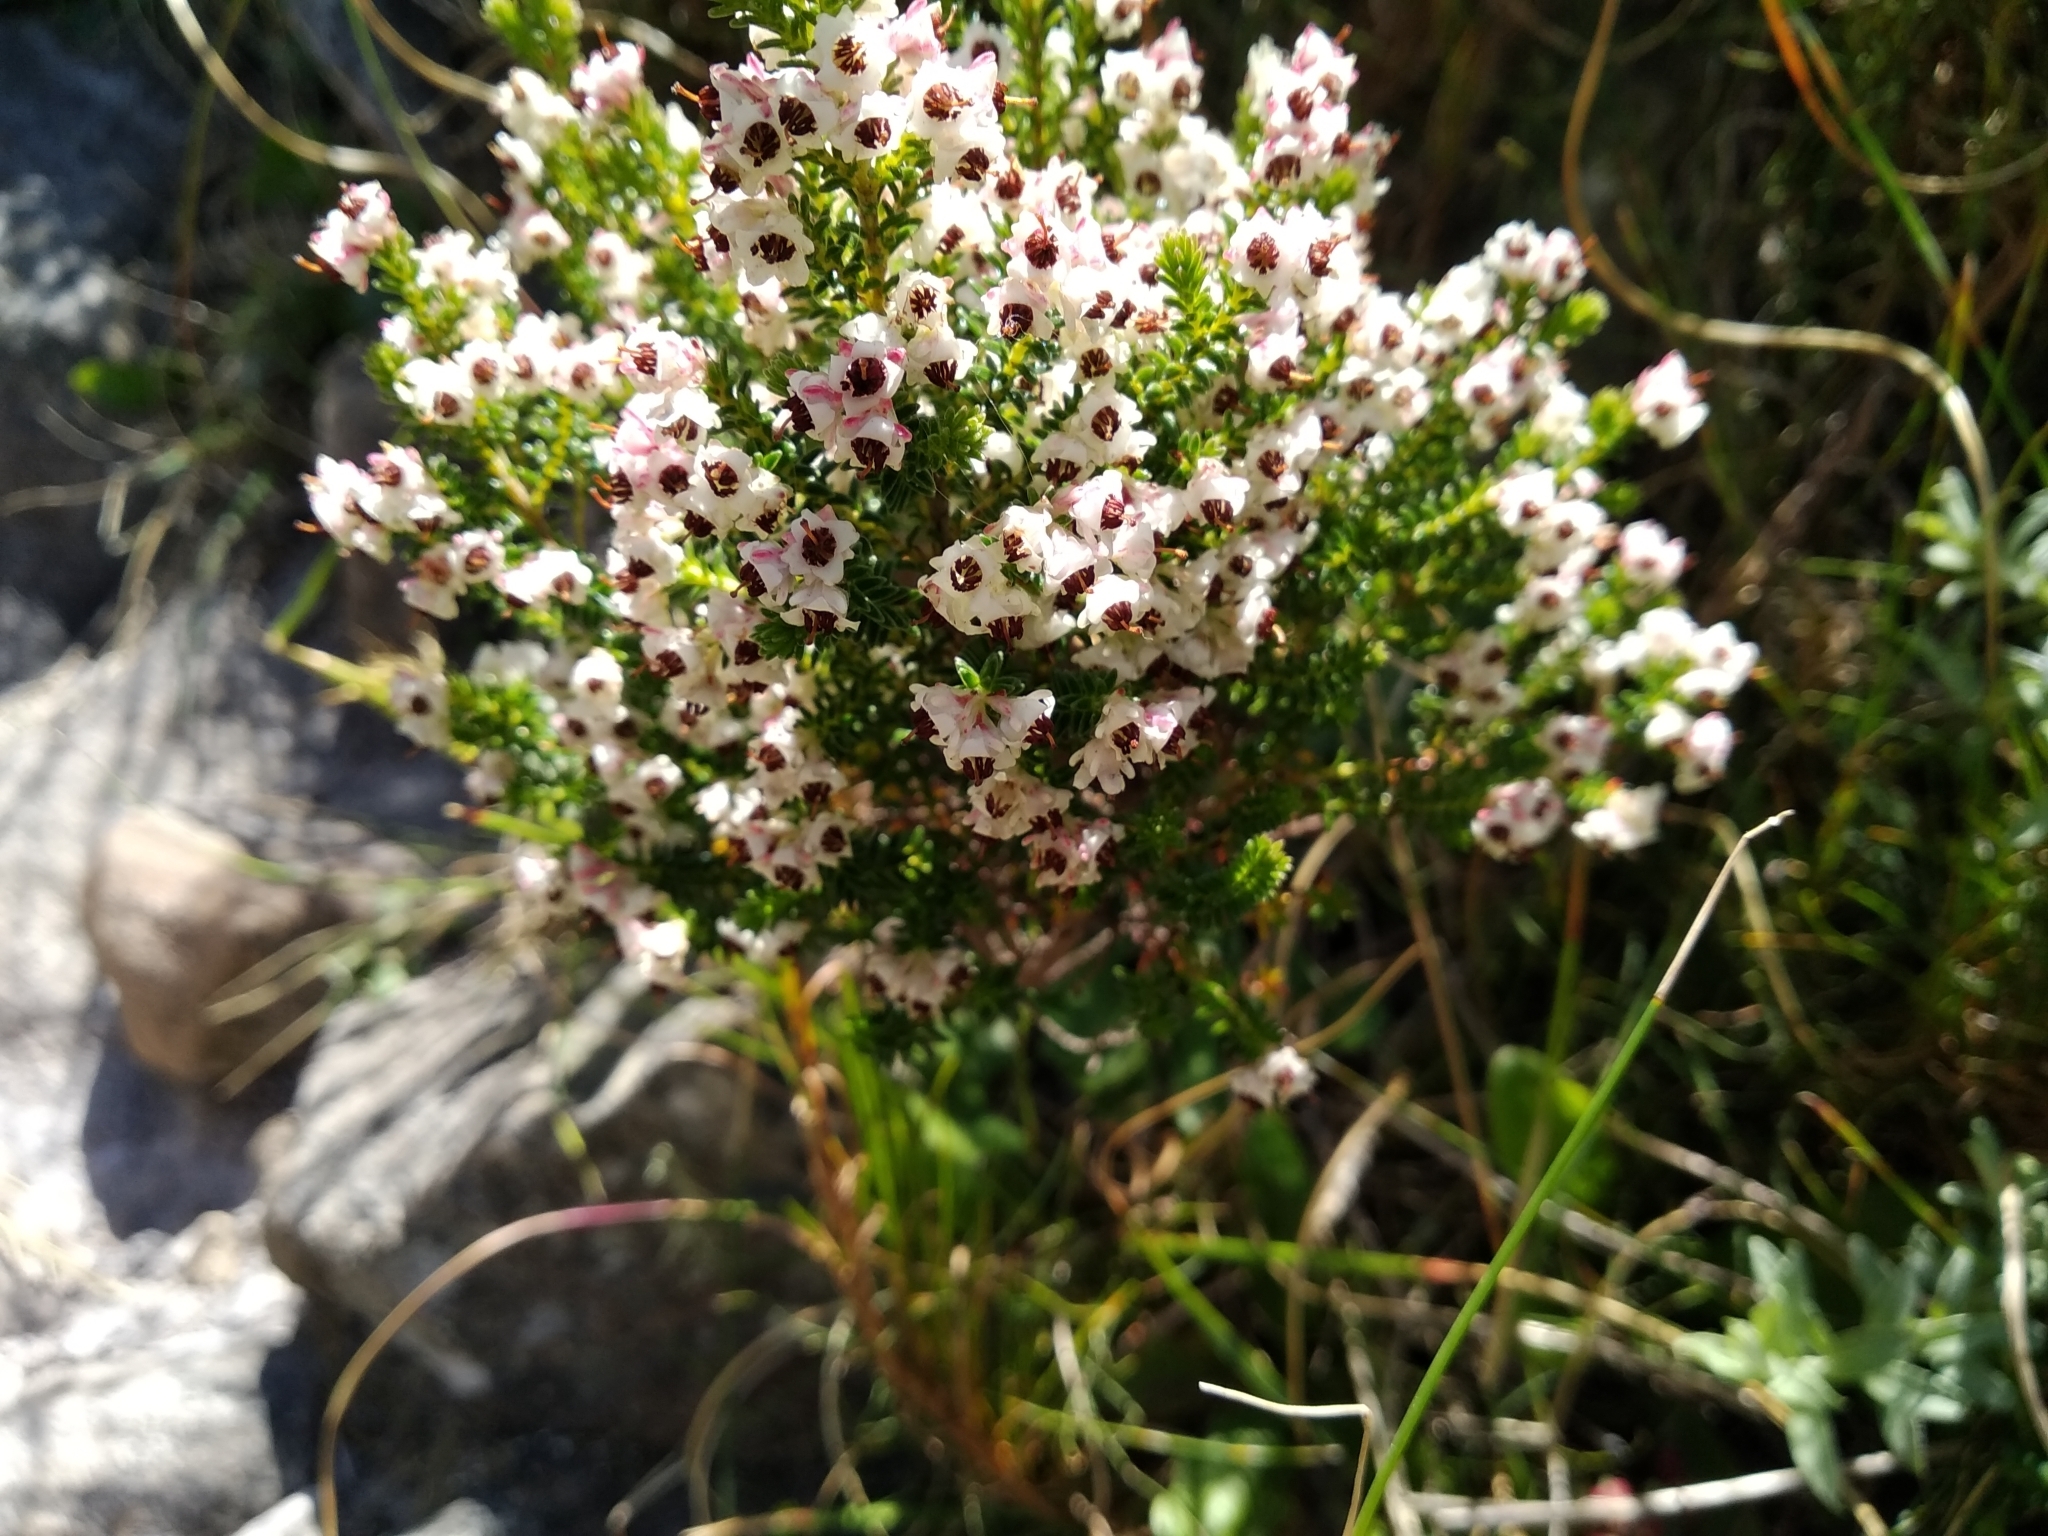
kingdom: Plantae
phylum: Tracheophyta
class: Magnoliopsida
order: Ericales
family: Ericaceae
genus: Erica
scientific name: Erica calycina
